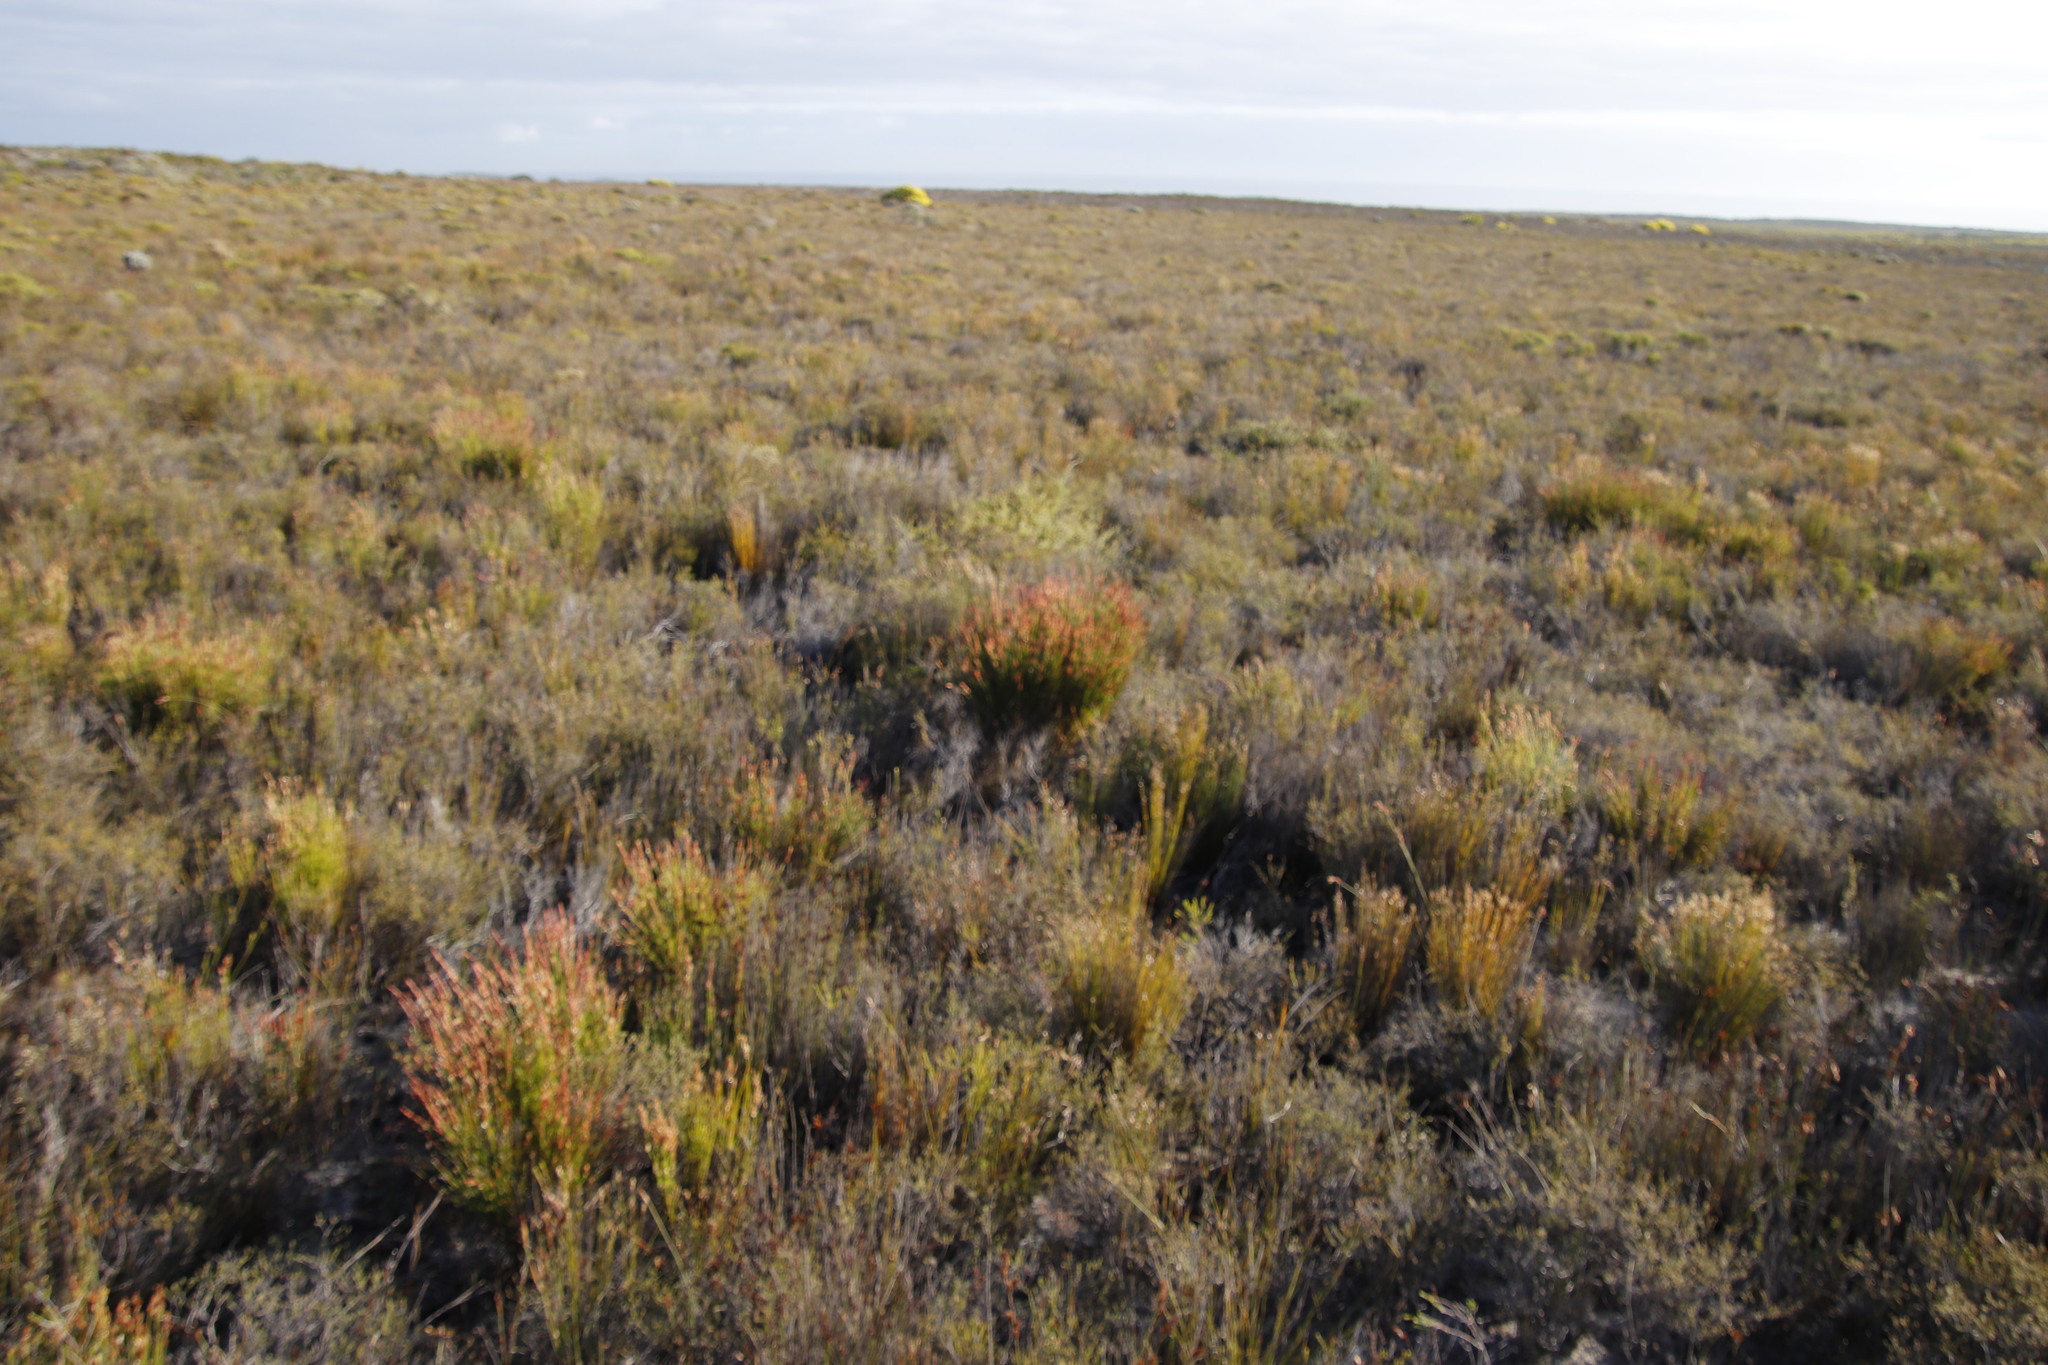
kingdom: Plantae
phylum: Tracheophyta
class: Liliopsida
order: Poales
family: Restionaceae
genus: Elegia
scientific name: Elegia stipularis
